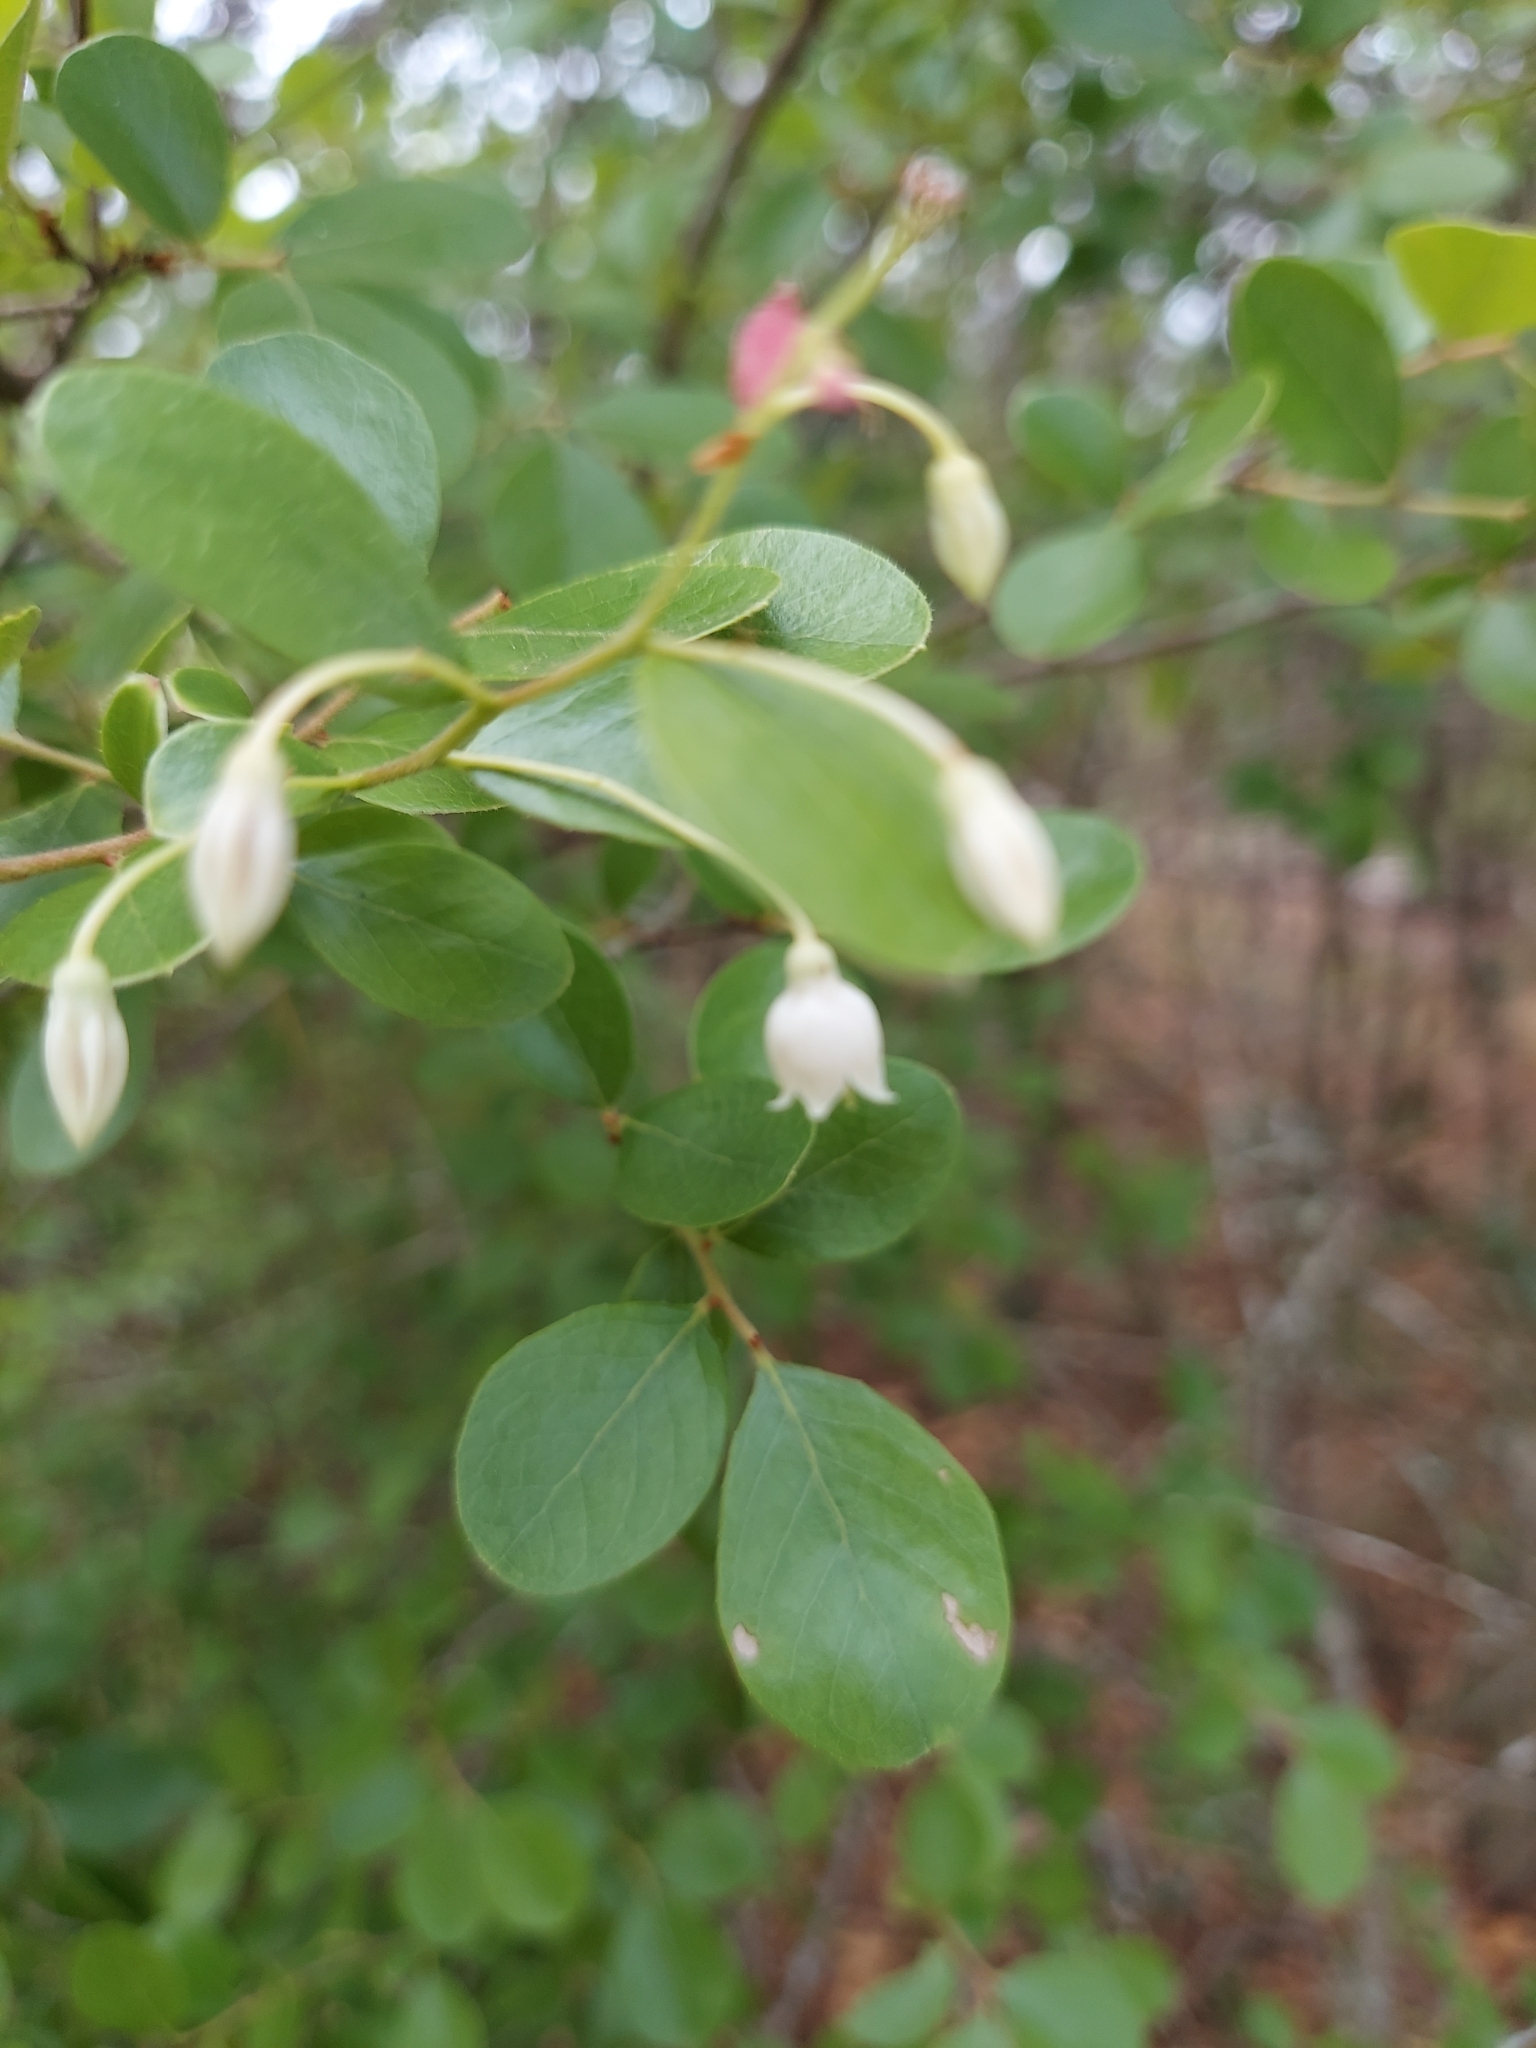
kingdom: Plantae
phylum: Tracheophyta
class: Magnoliopsida
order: Ericales
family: Ericaceae
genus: Vaccinium
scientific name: Vaccinium arboreum
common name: Farkleberry
